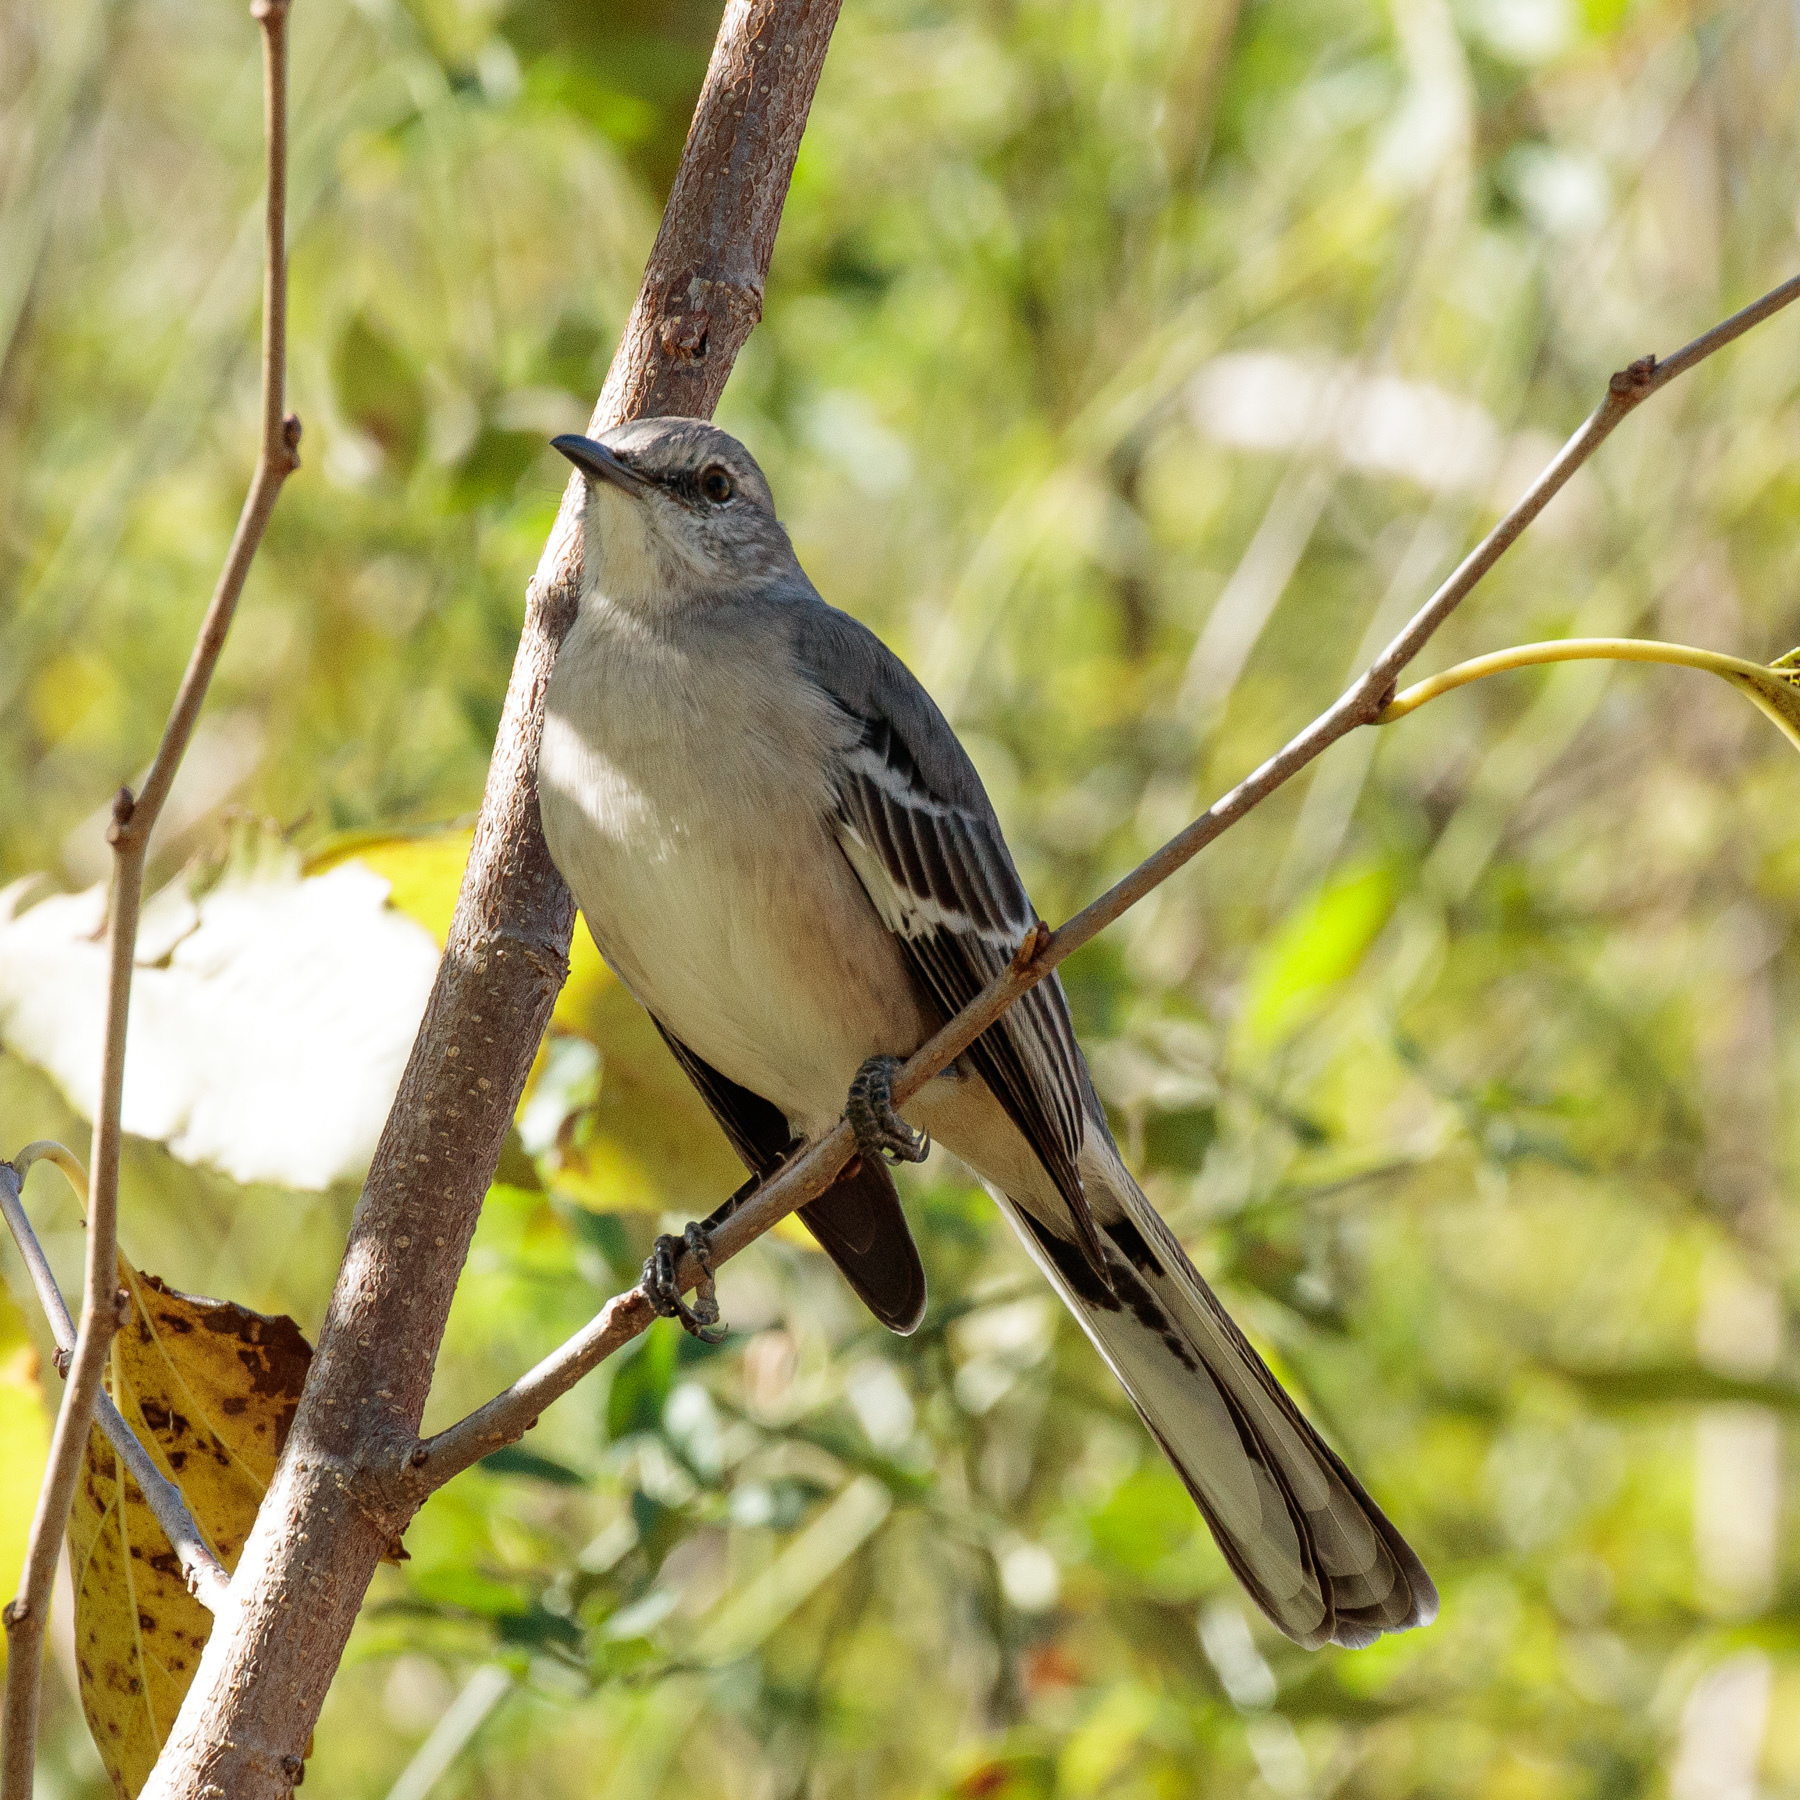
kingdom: Animalia
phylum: Chordata
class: Aves
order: Passeriformes
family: Mimidae
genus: Mimus
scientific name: Mimus polyglottos
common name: Northern mockingbird
